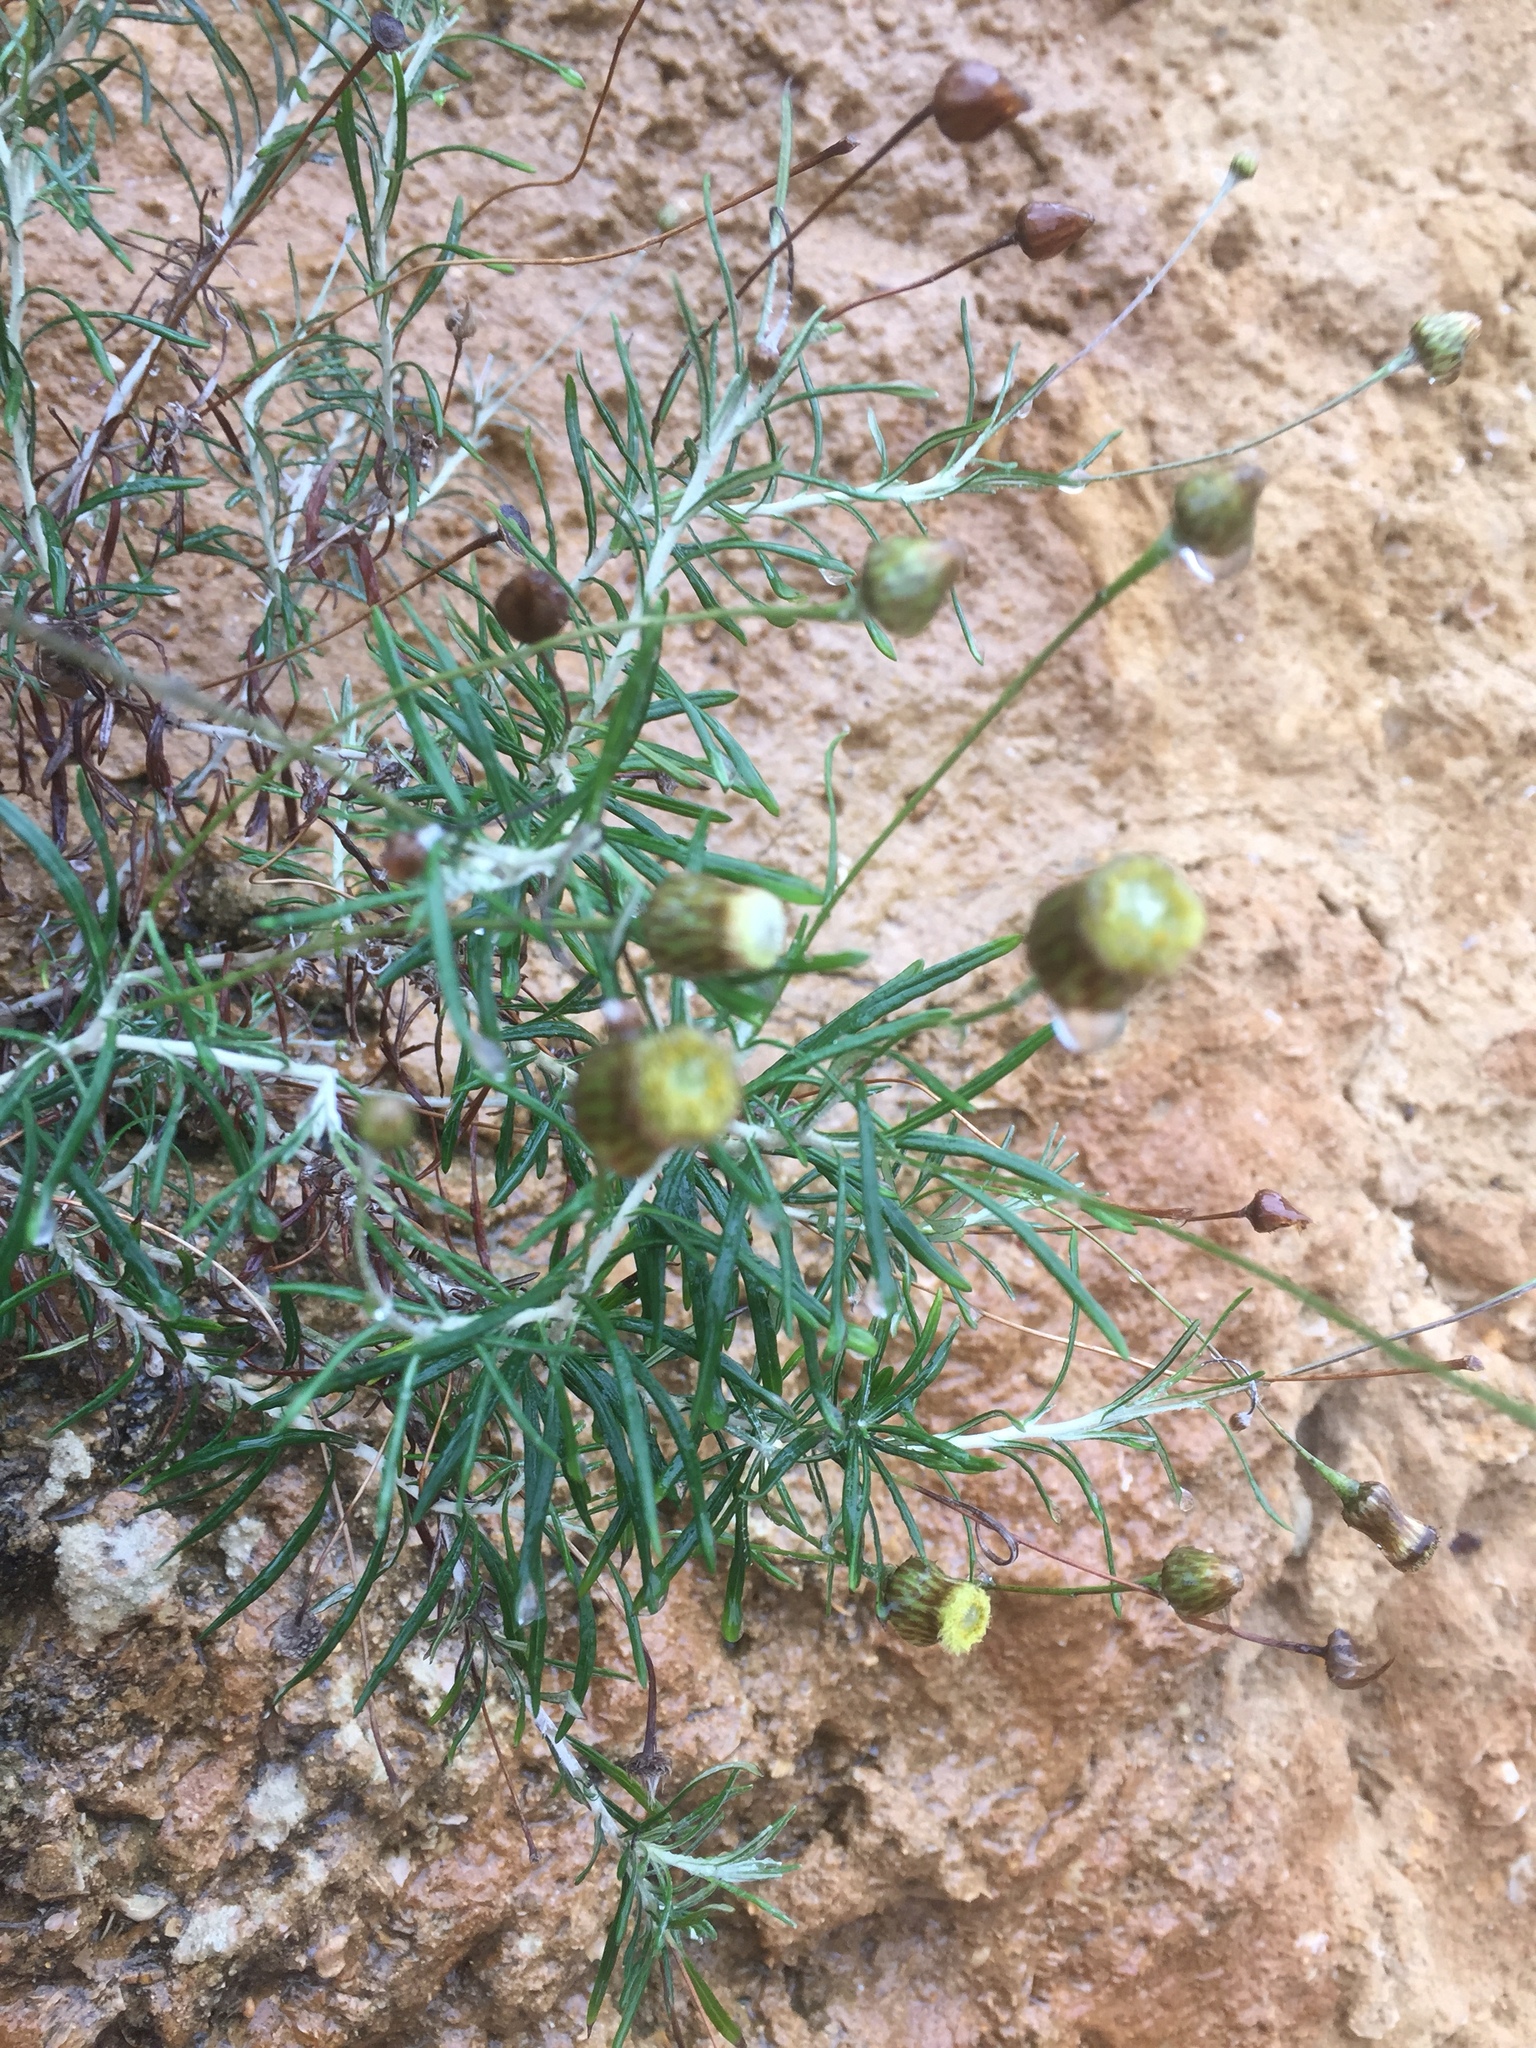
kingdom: Plantae
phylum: Tracheophyta
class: Magnoliopsida
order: Asterales
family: Asteraceae
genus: Phagnalon
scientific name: Phagnalon saxatile
